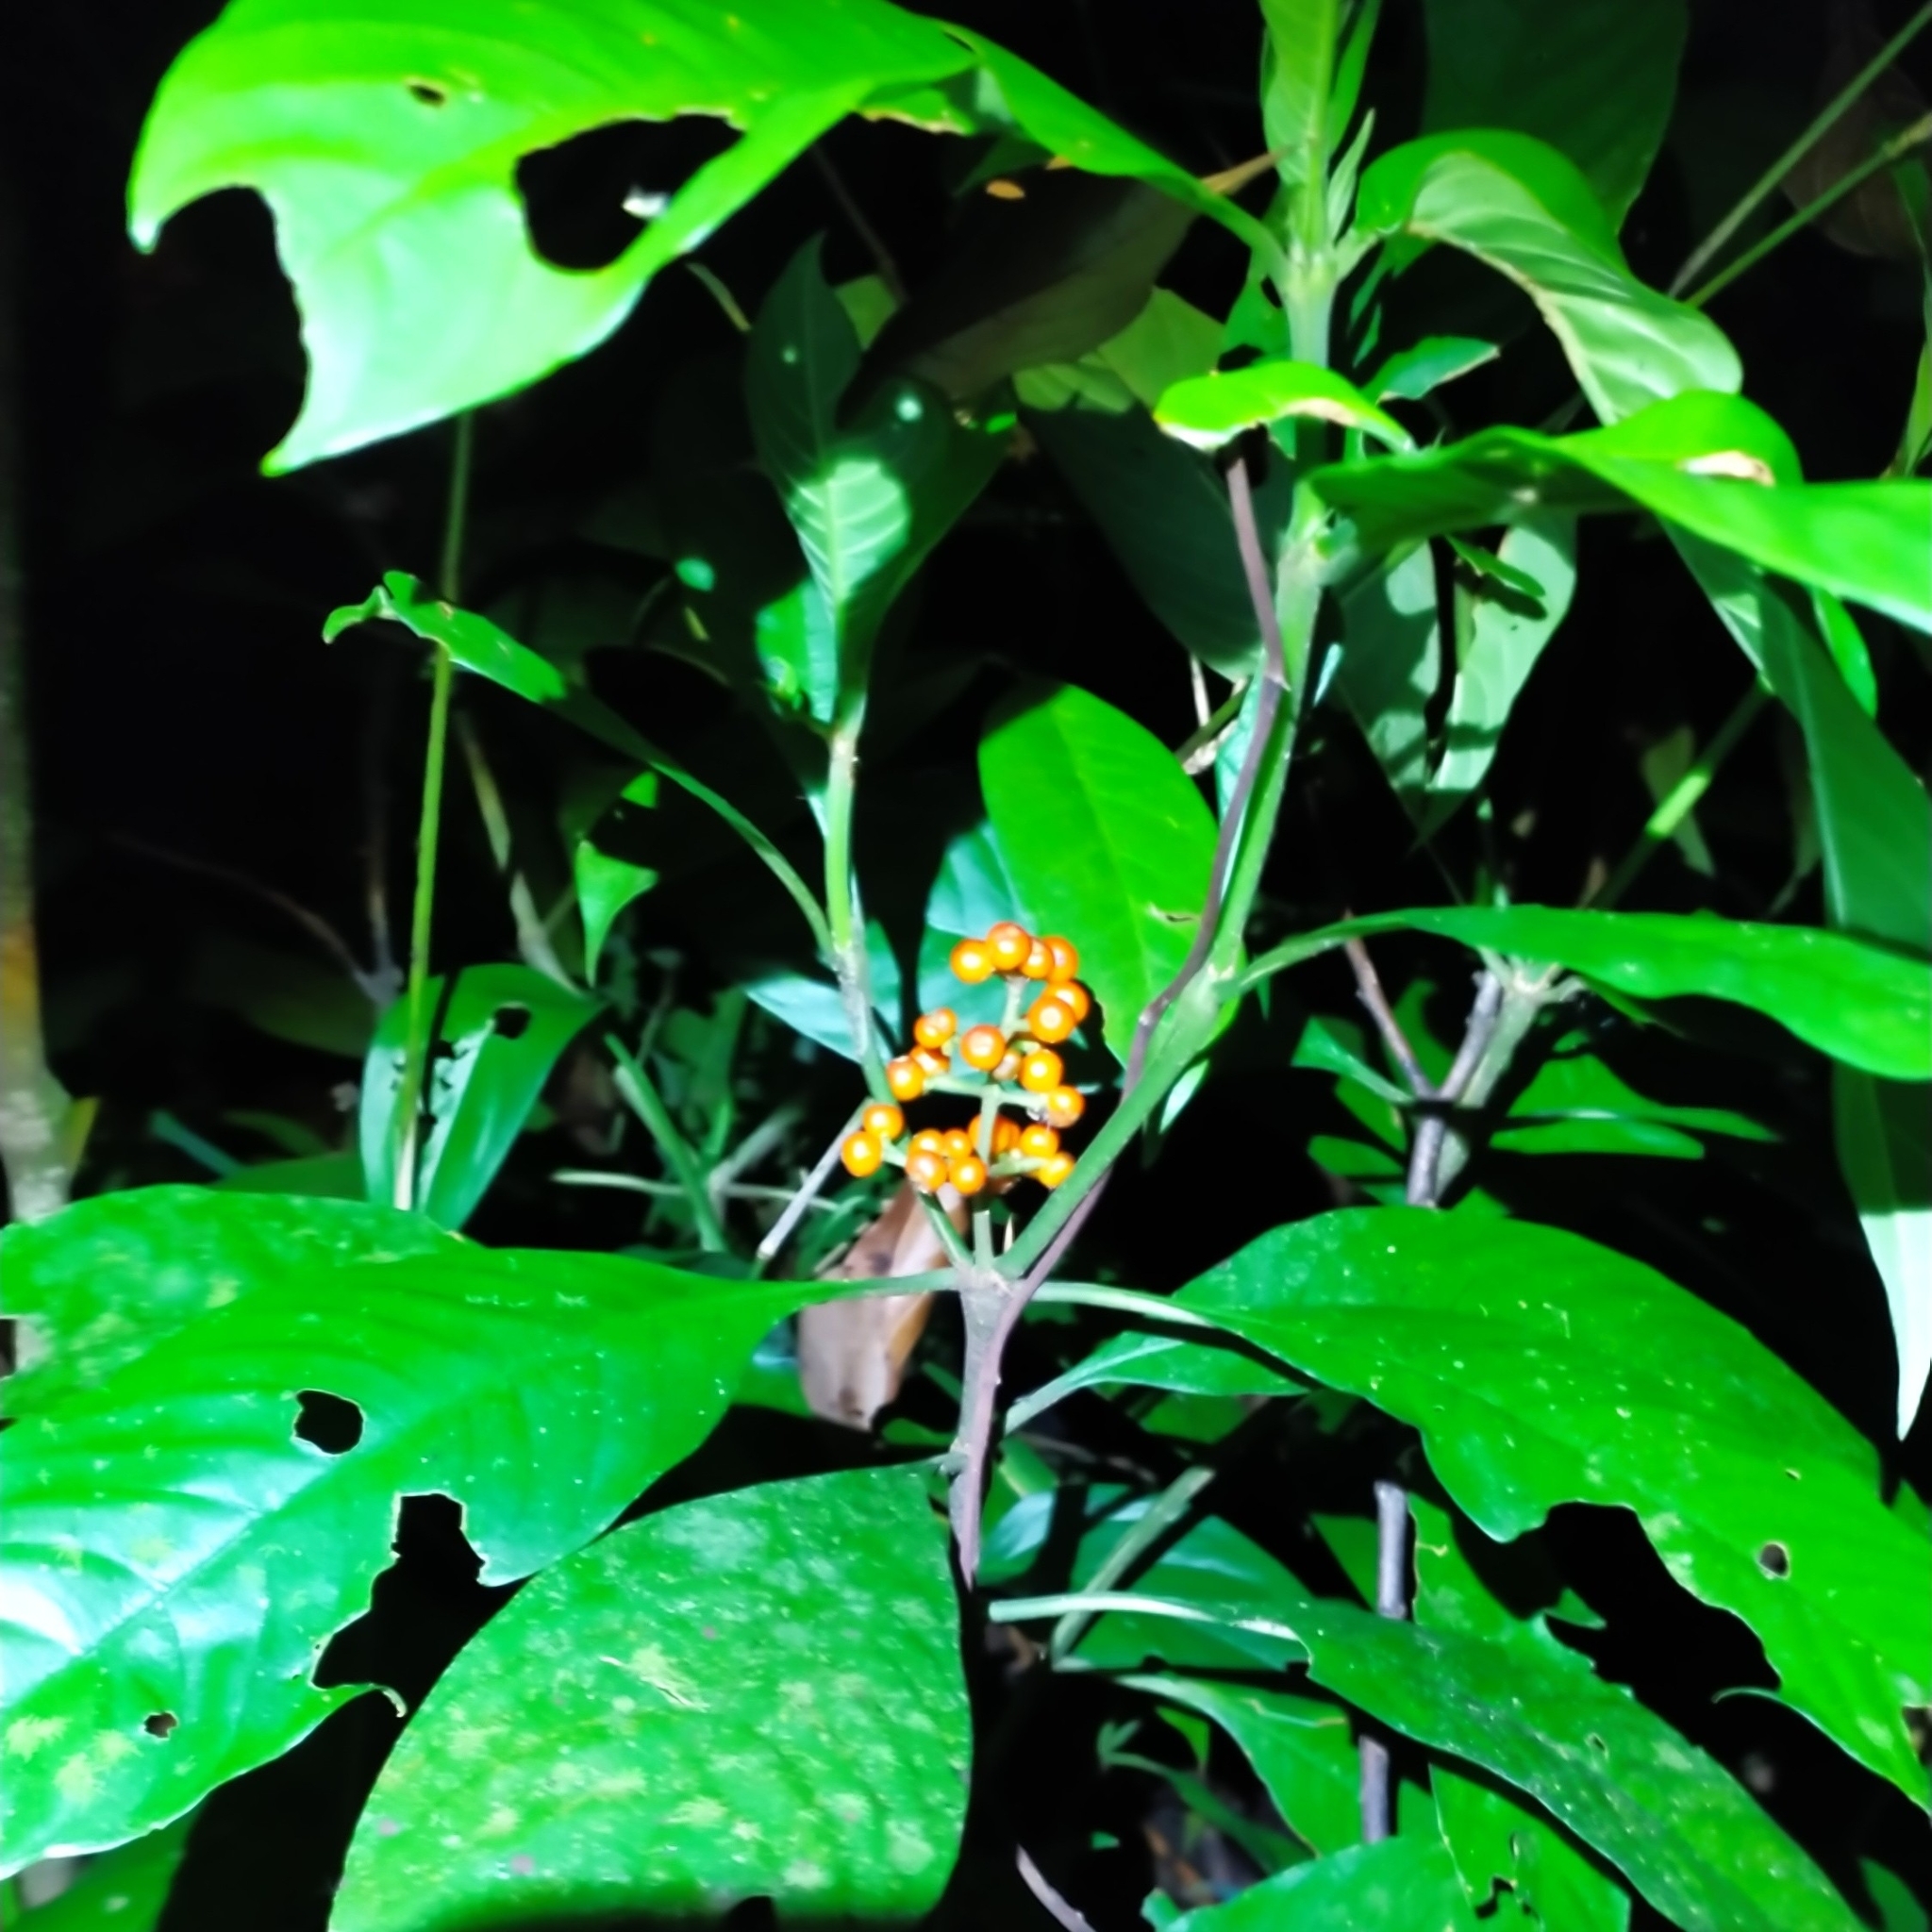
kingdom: Plantae
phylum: Tracheophyta
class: Magnoliopsida
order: Gentianales
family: Rubiaceae
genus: Palicourea
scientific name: Palicourea racemosa
